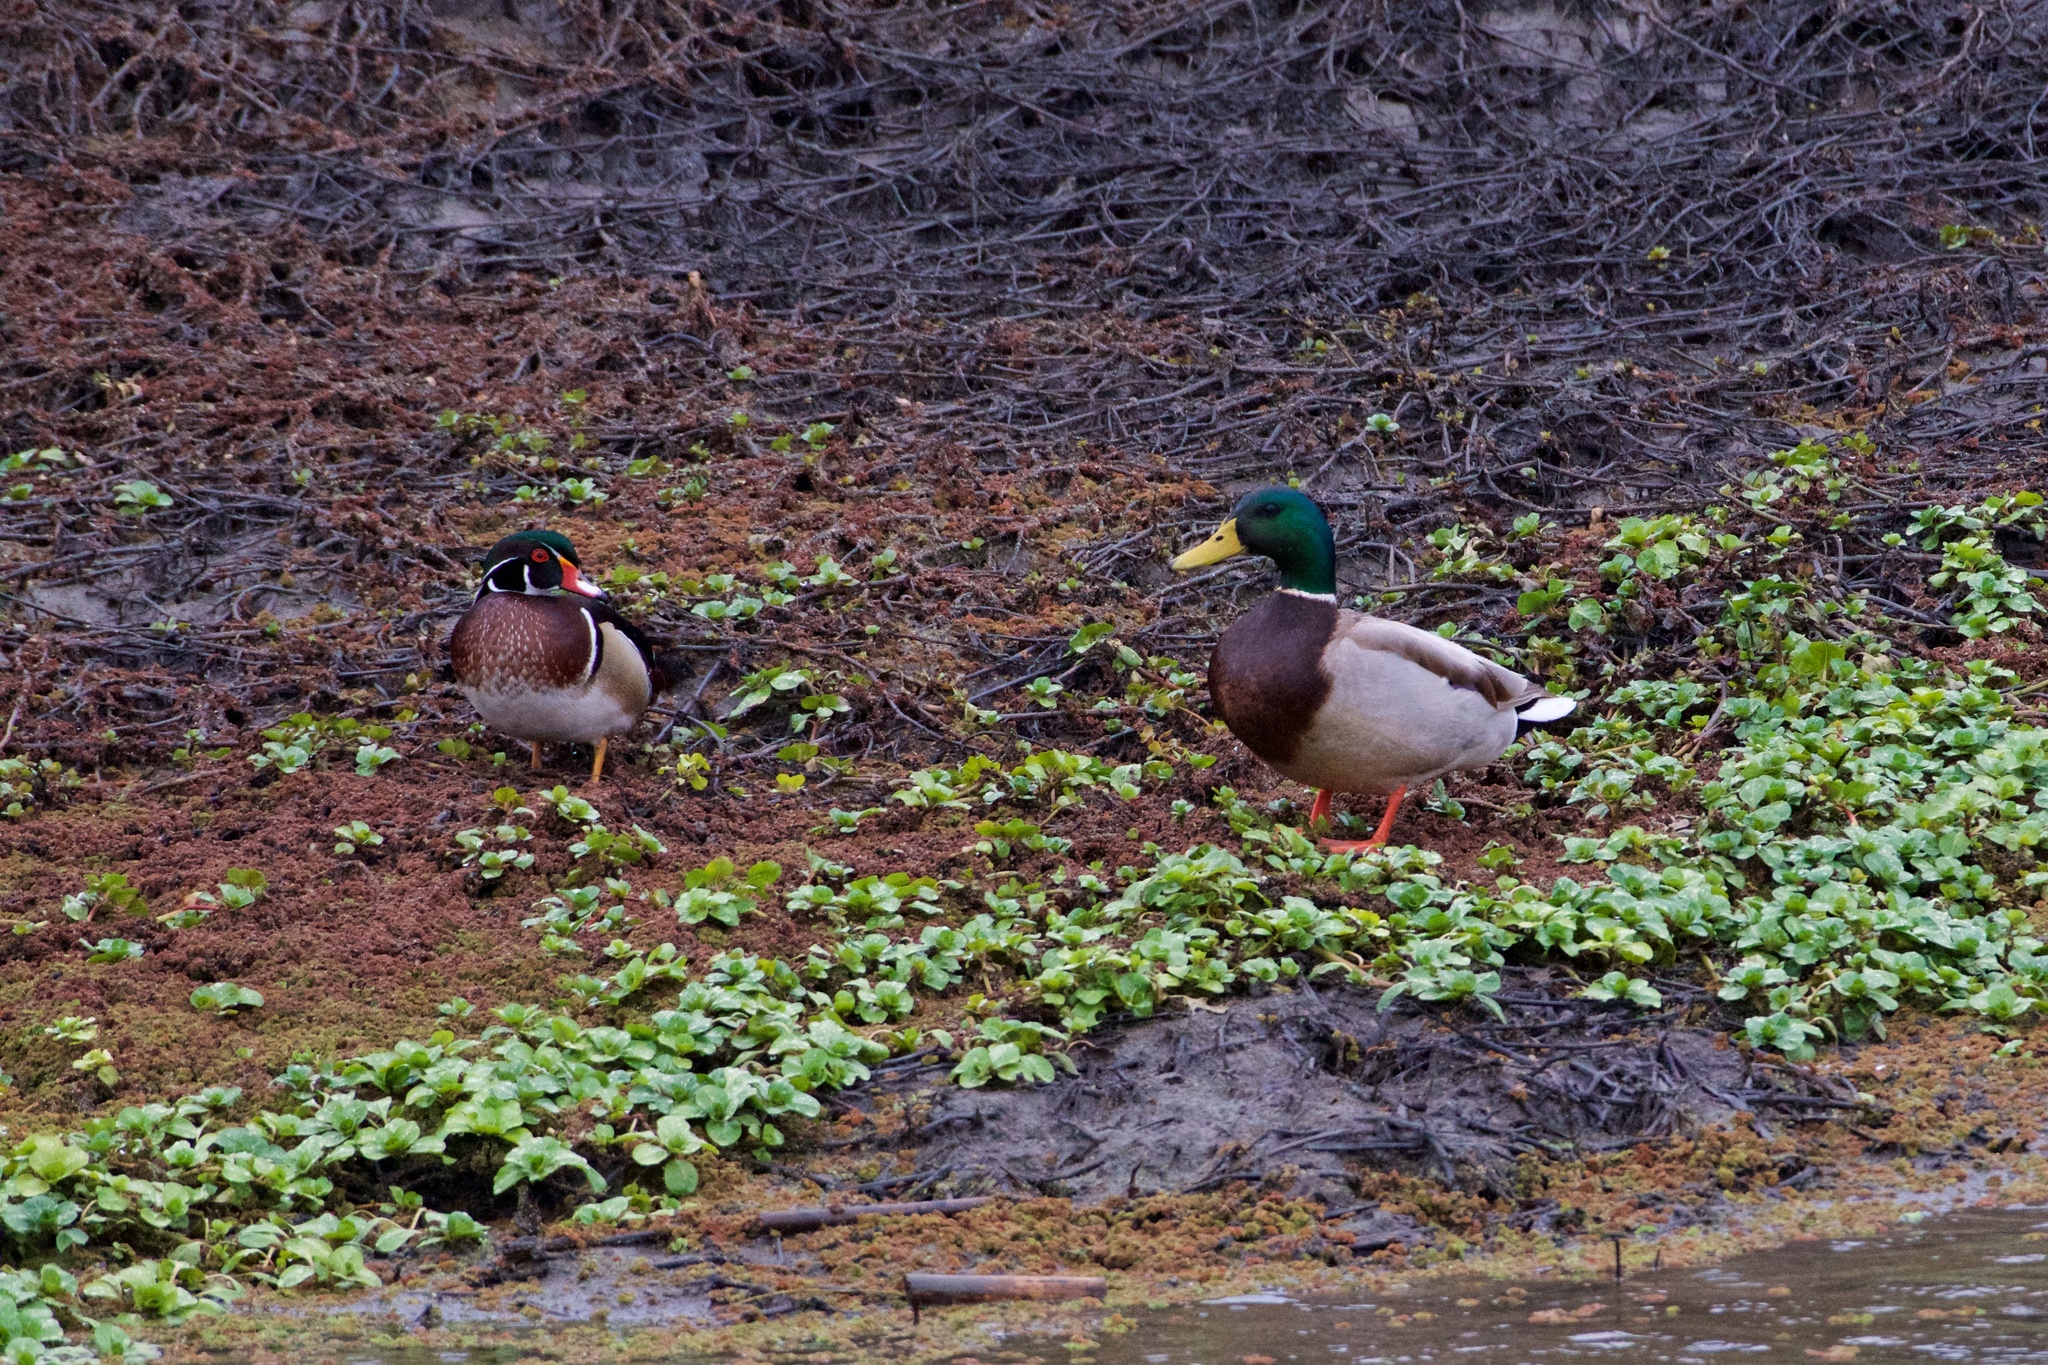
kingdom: Animalia
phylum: Chordata
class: Aves
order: Anseriformes
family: Anatidae
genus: Aix
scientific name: Aix sponsa
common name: Wood duck
